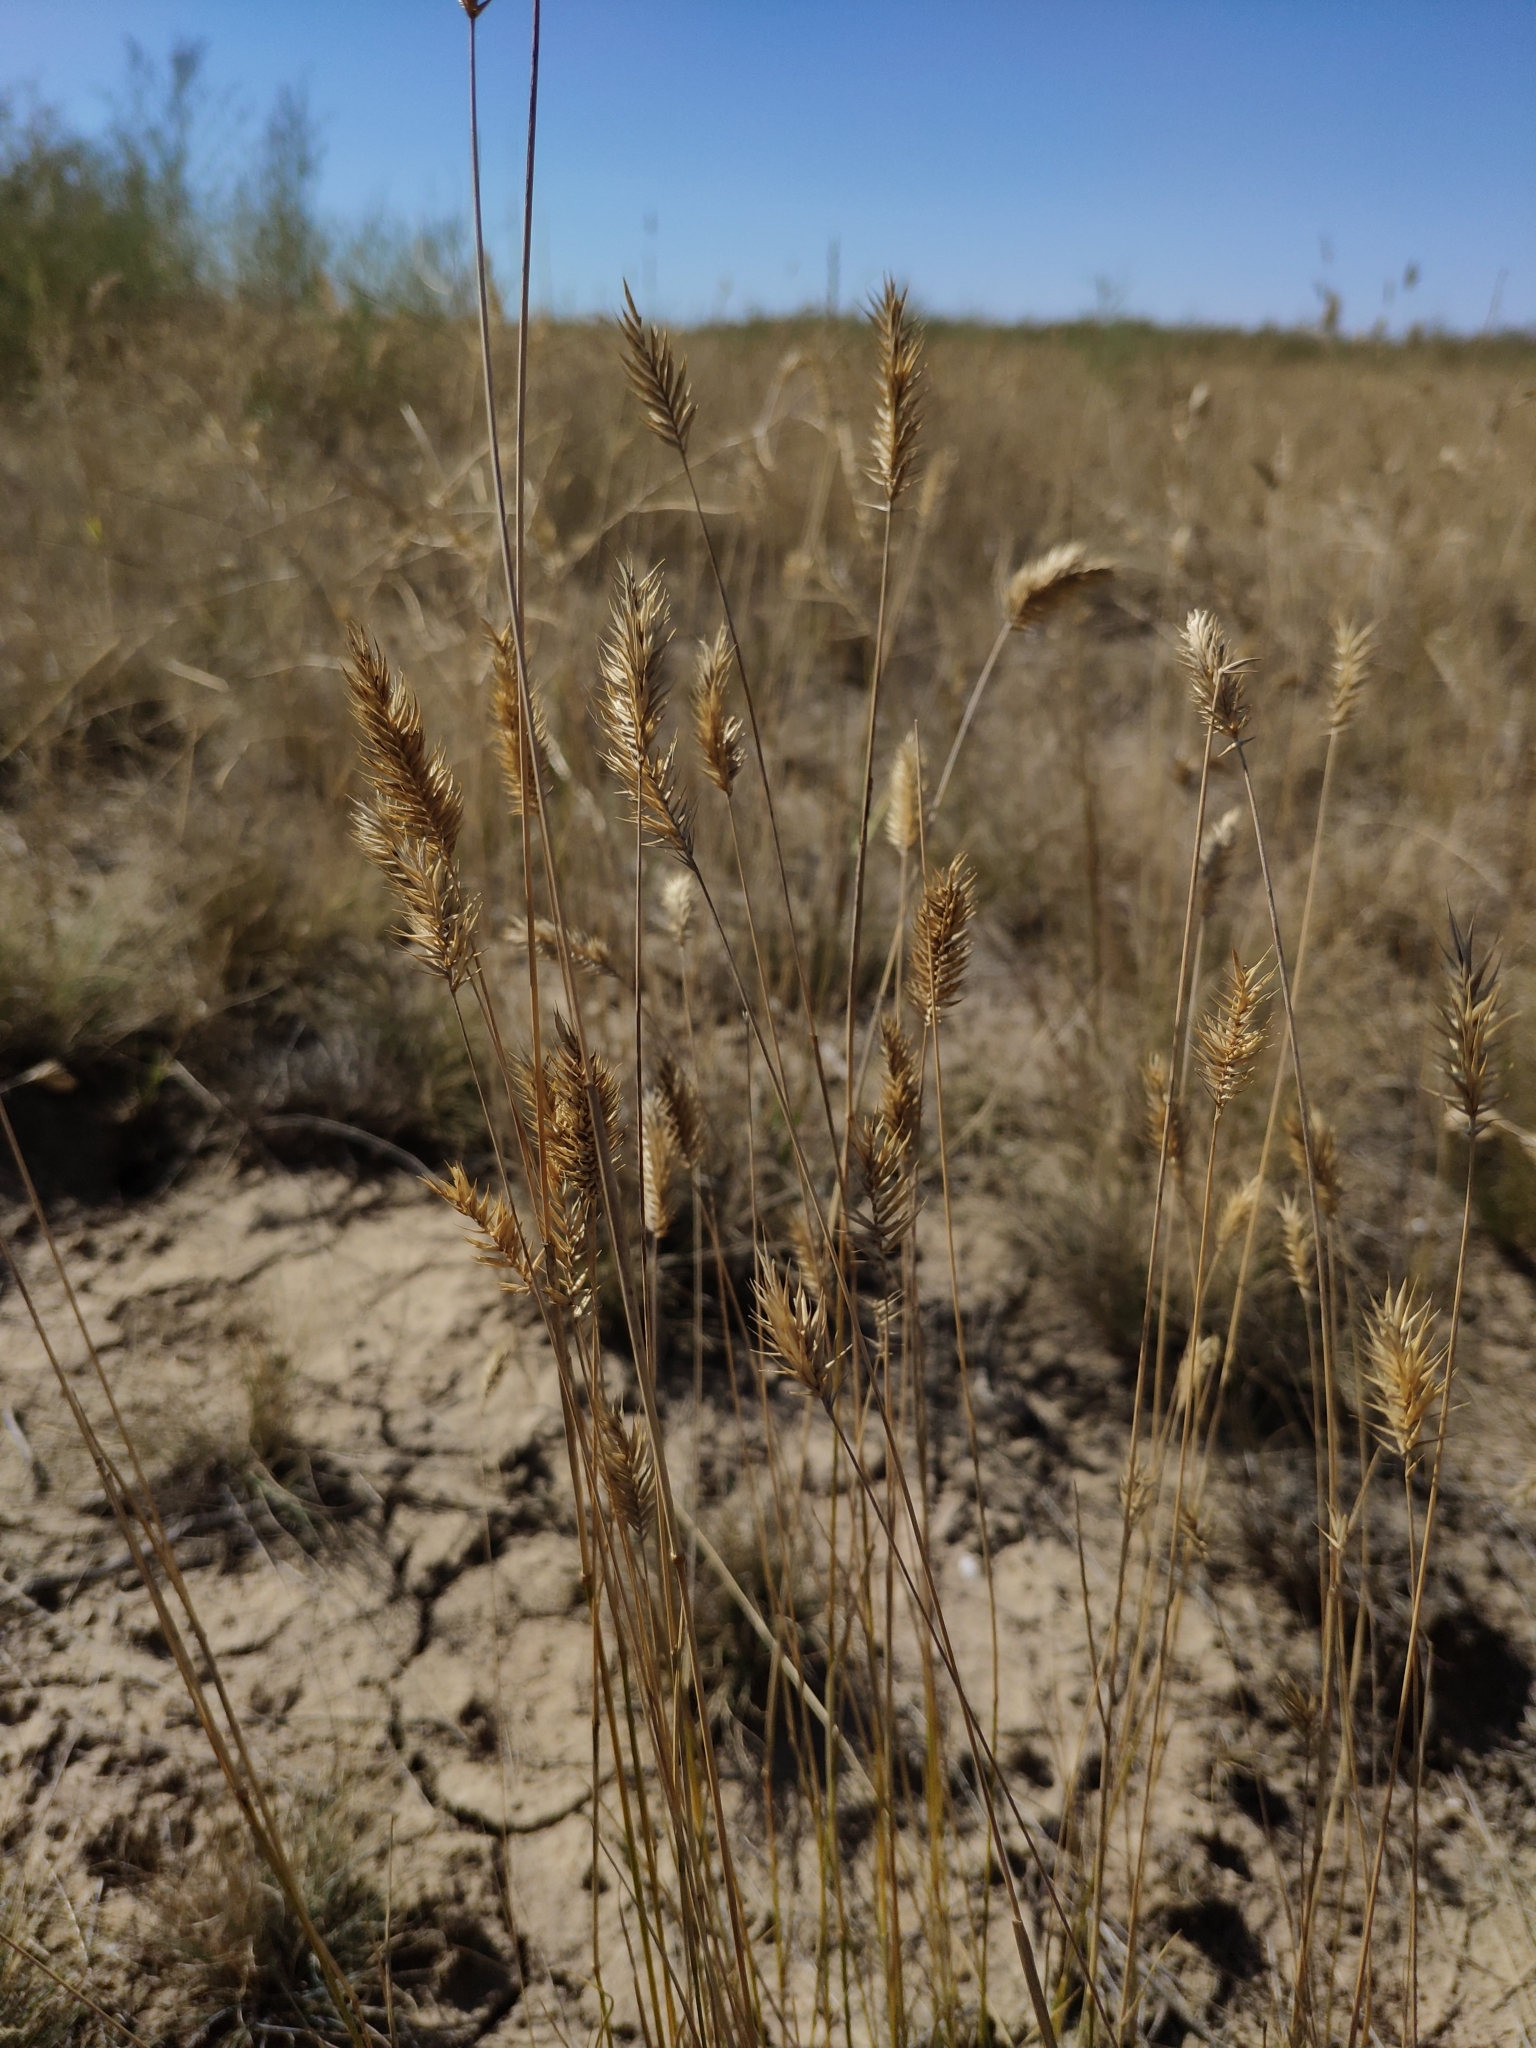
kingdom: Plantae
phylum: Tracheophyta
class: Liliopsida
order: Poales
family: Poaceae
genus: Agropyron
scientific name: Agropyron cristatum
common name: Crested wheatgrass
